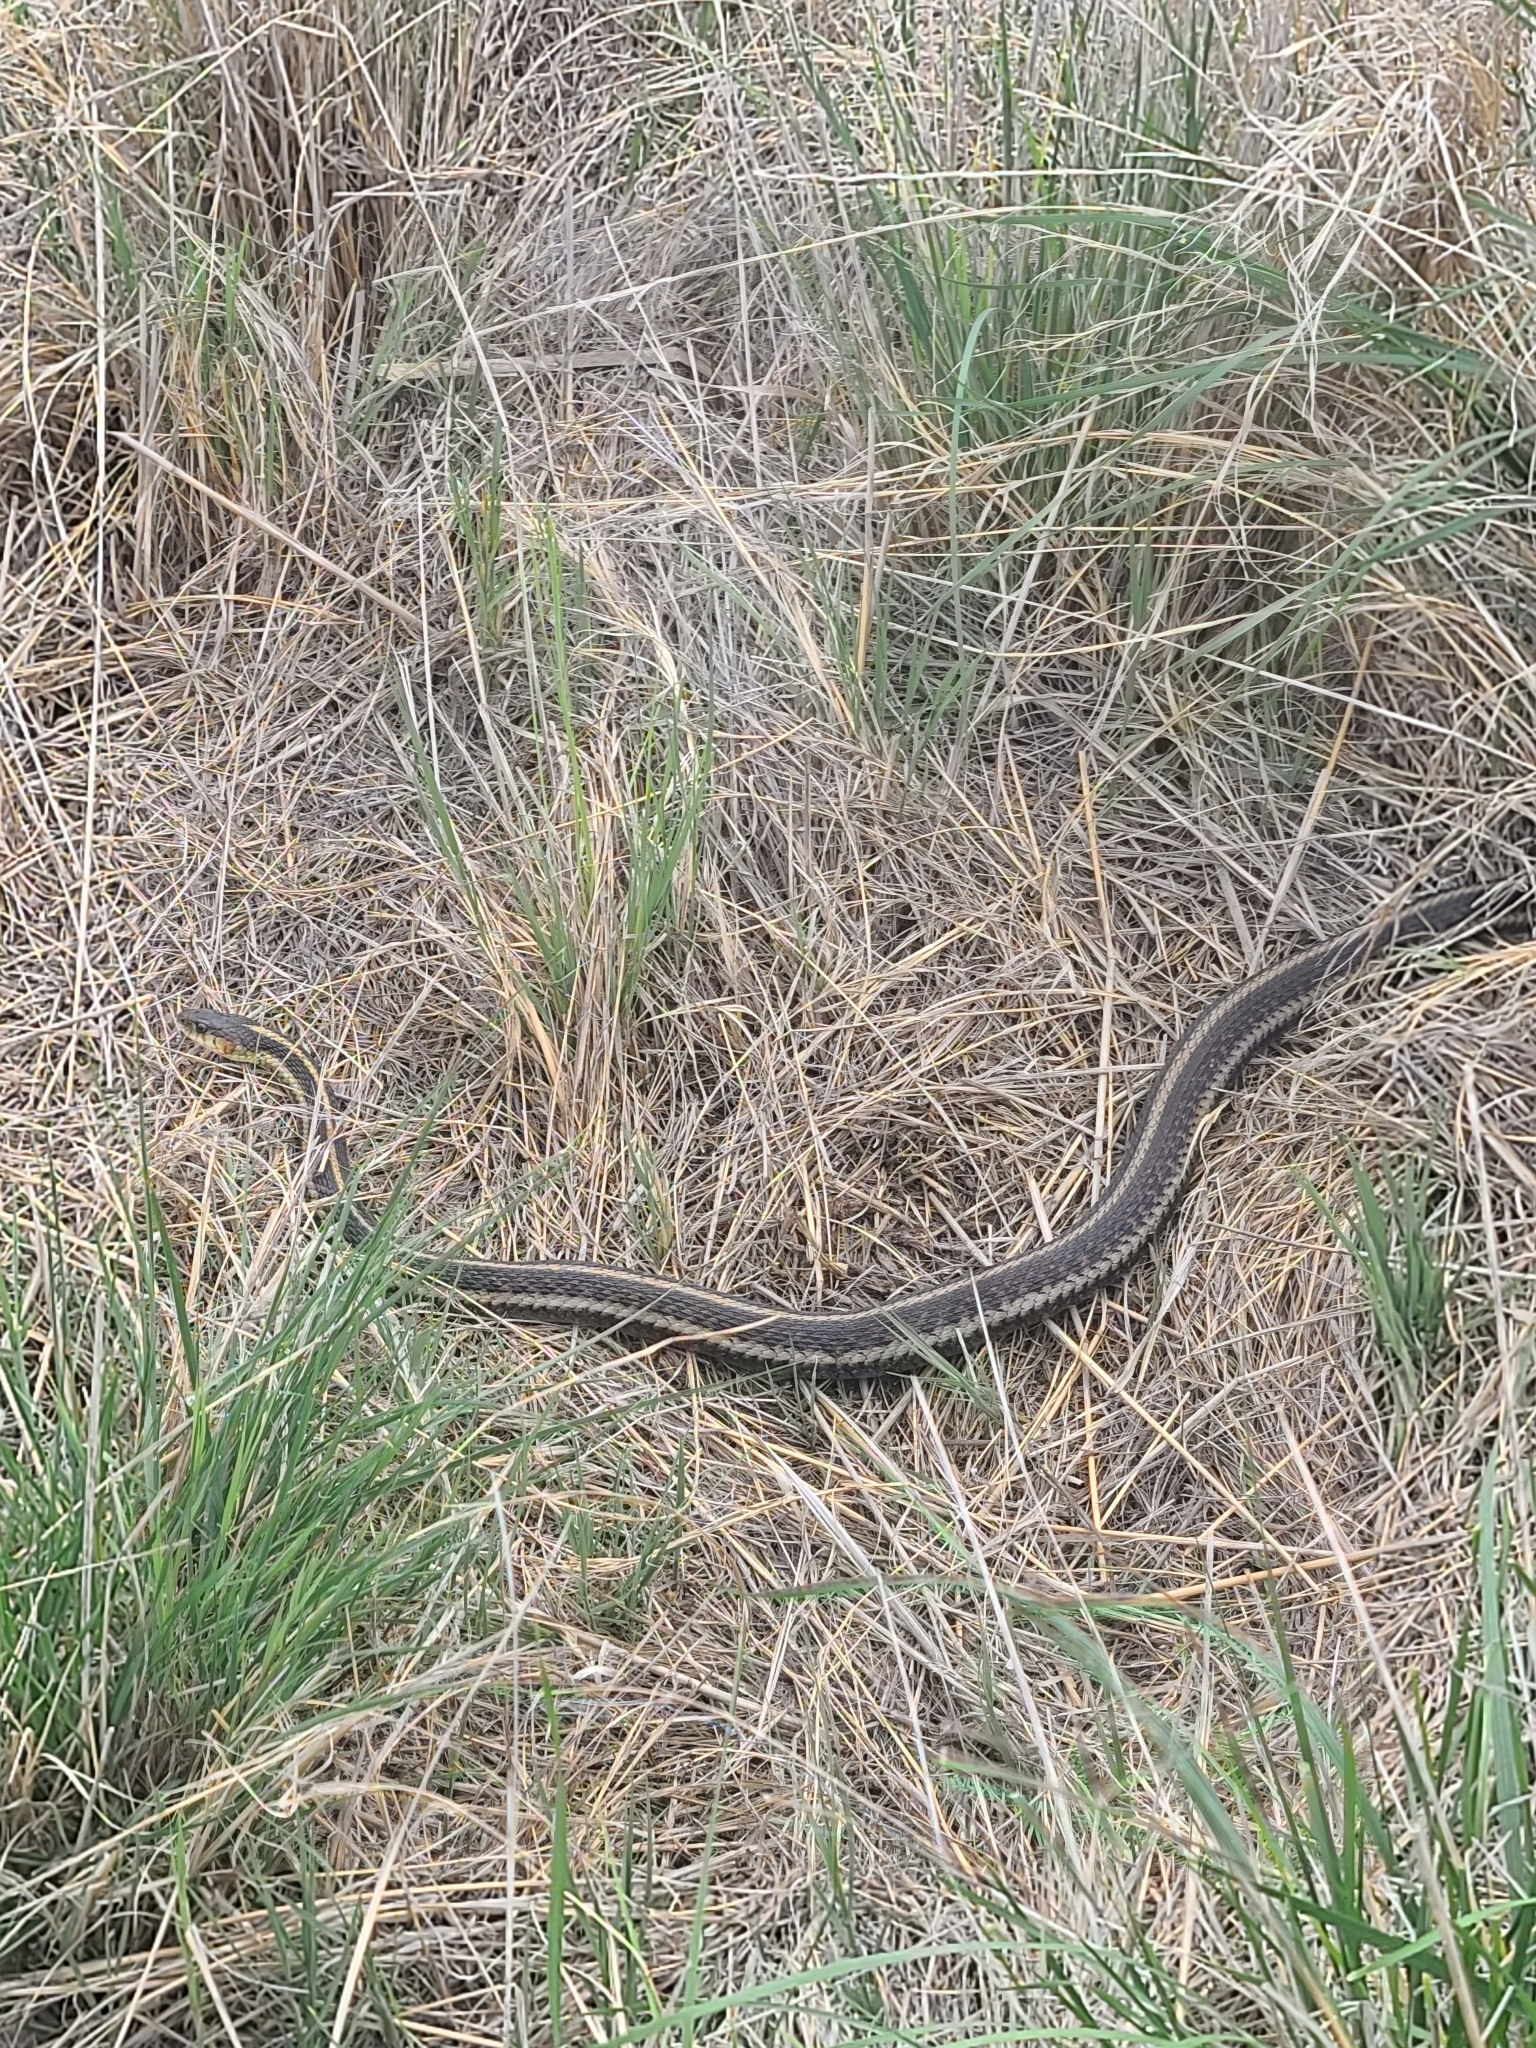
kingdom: Animalia
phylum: Chordata
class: Squamata
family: Colubridae
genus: Thamnophis
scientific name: Thamnophis sirtalis
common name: Common garter snake
